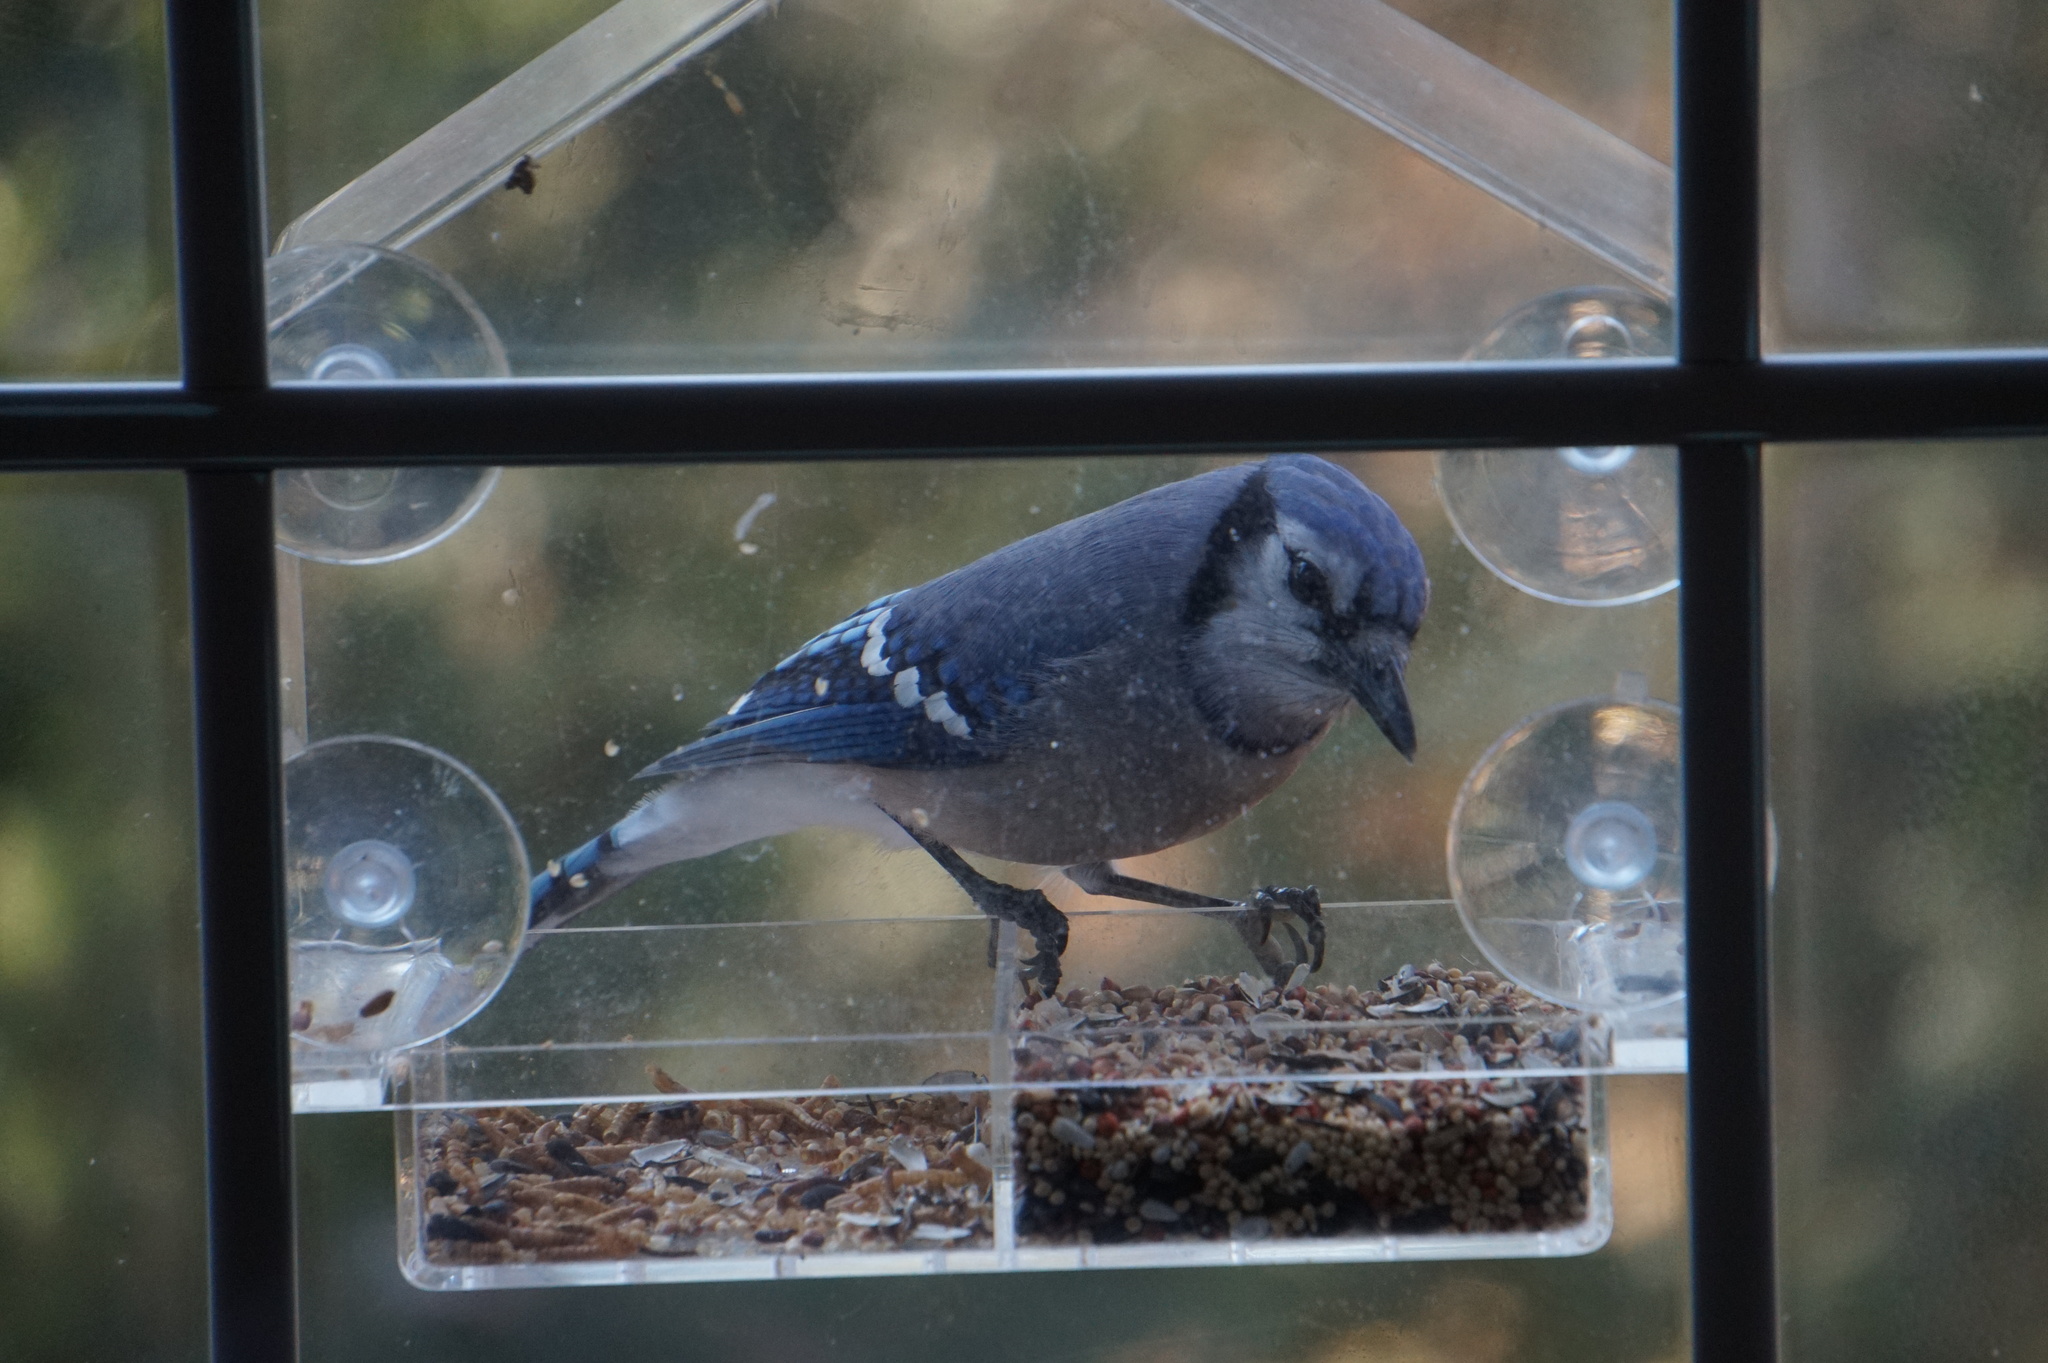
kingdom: Animalia
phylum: Chordata
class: Aves
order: Passeriformes
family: Corvidae
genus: Cyanocitta
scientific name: Cyanocitta cristata
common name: Blue jay
